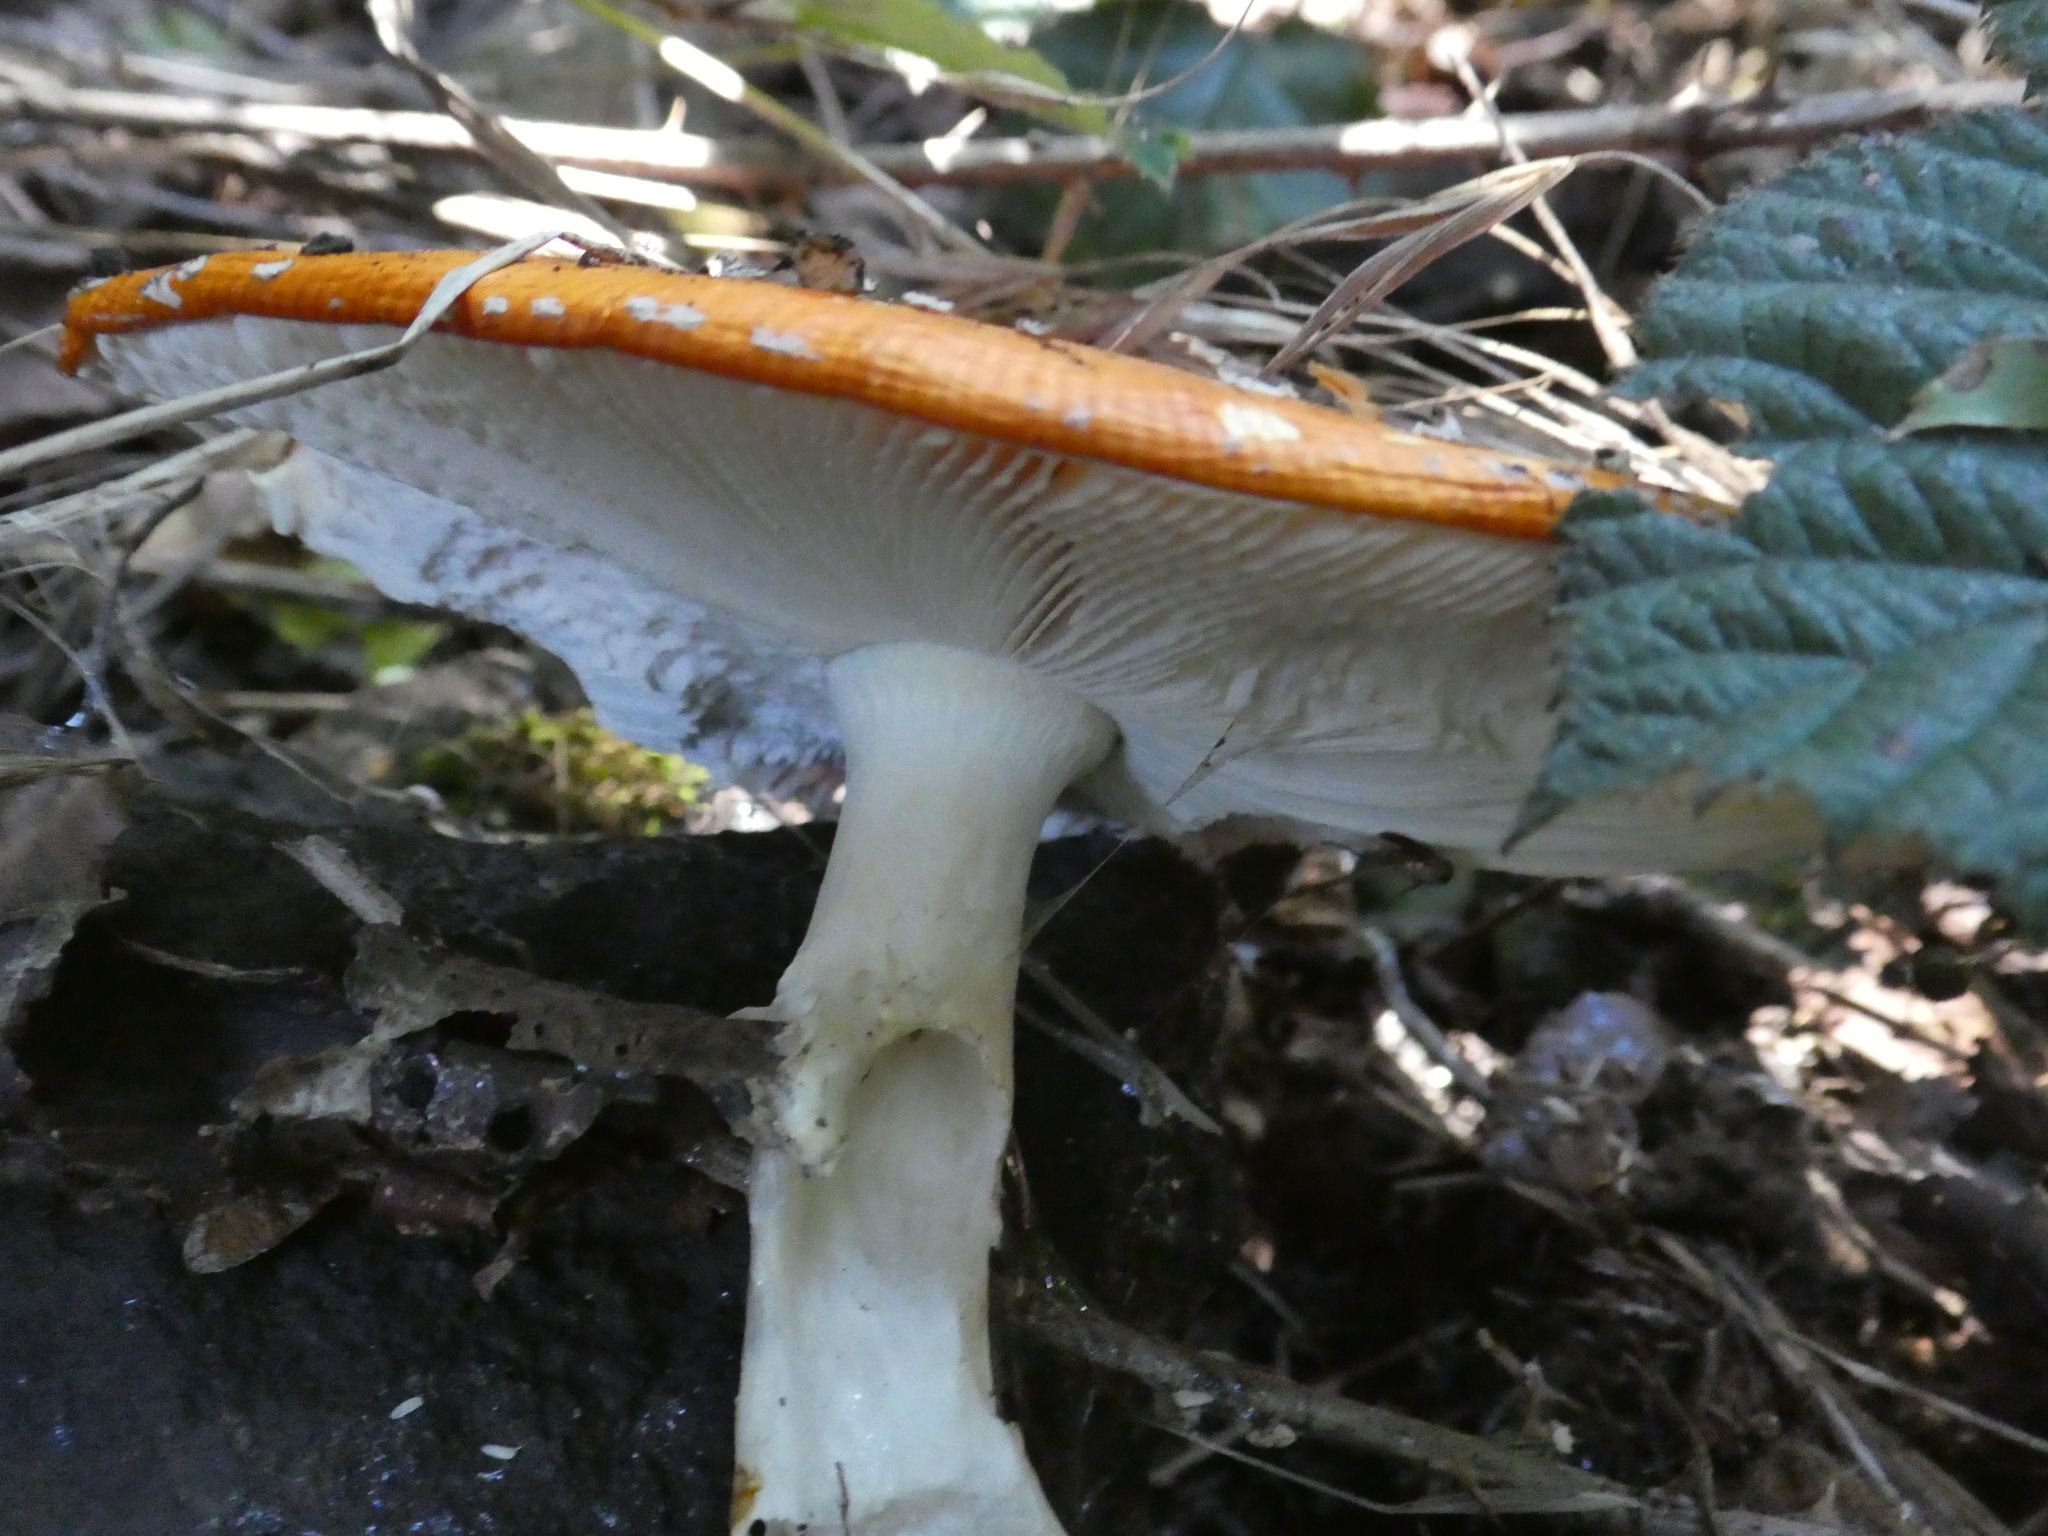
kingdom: Fungi
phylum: Basidiomycota
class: Agaricomycetes
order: Agaricales
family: Amanitaceae
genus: Amanita
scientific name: Amanita muscaria
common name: Fly agaric
